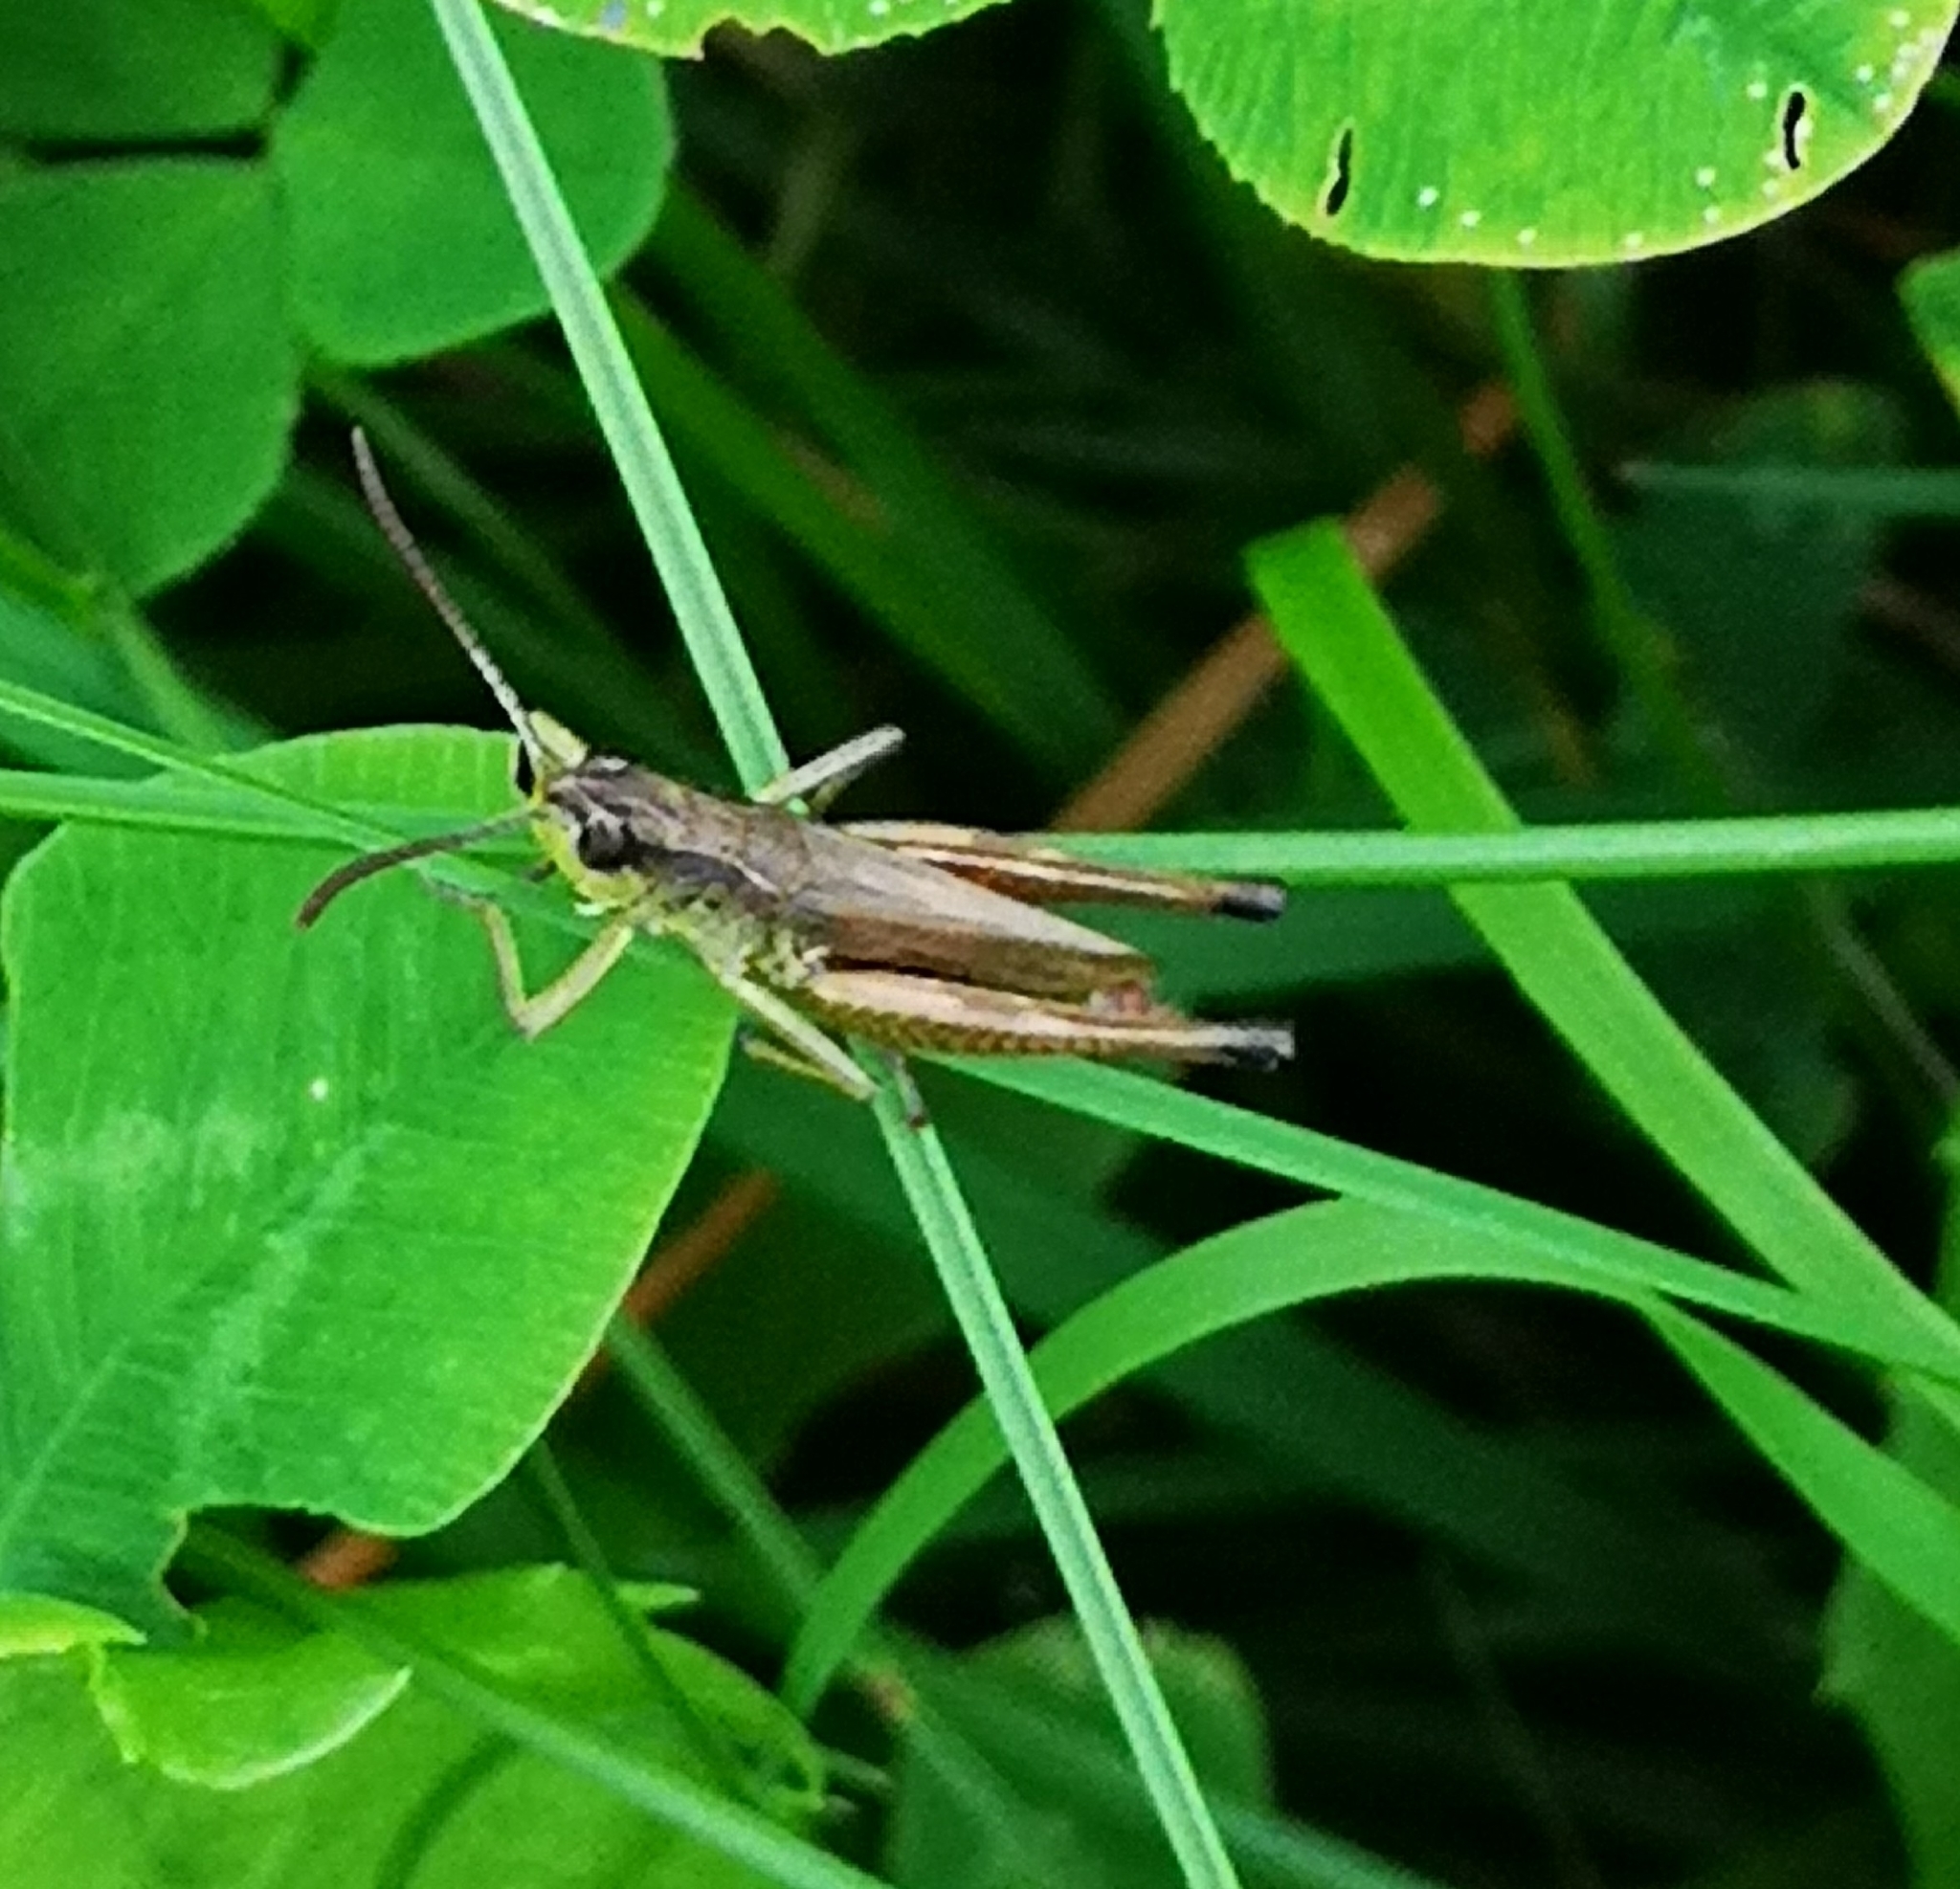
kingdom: Animalia
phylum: Arthropoda
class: Insecta
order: Orthoptera
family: Acrididae
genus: Pseudochorthippus
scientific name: Pseudochorthippus parallelus
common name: Meadow grasshopper
